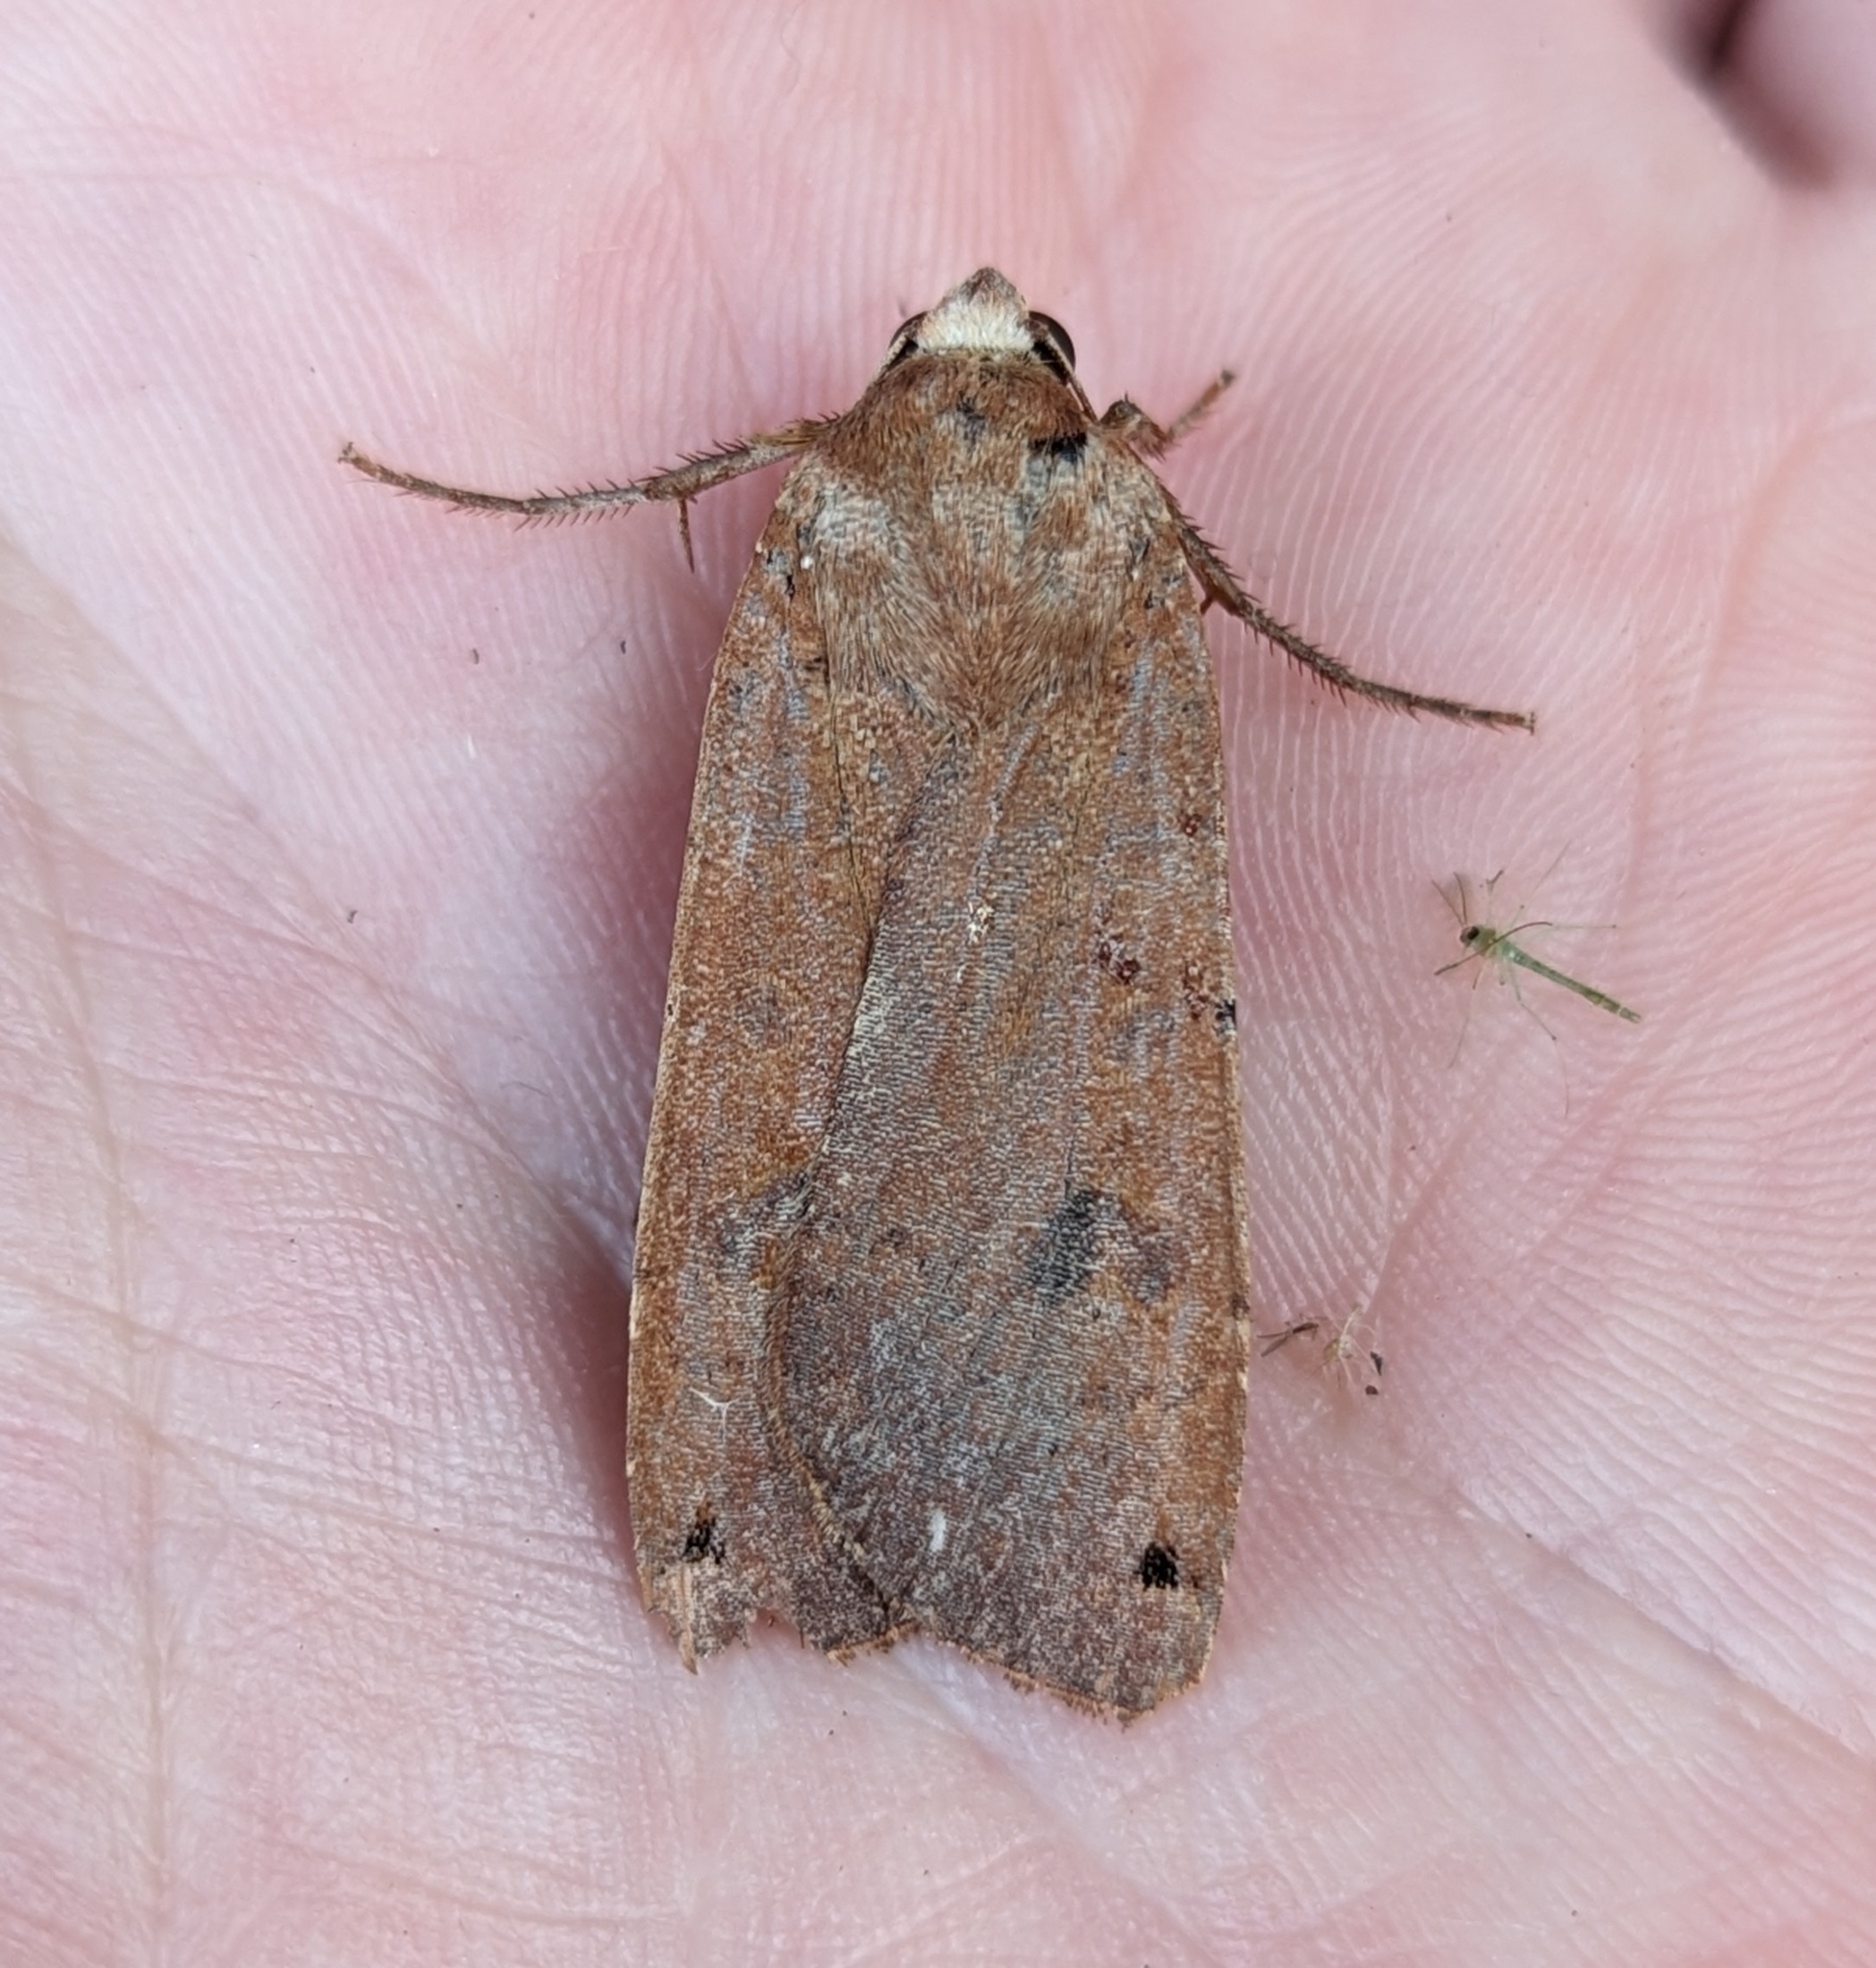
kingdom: Animalia
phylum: Arthropoda
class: Insecta
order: Lepidoptera
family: Noctuidae
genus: Noctua
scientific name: Noctua pronuba
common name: Large yellow underwing
